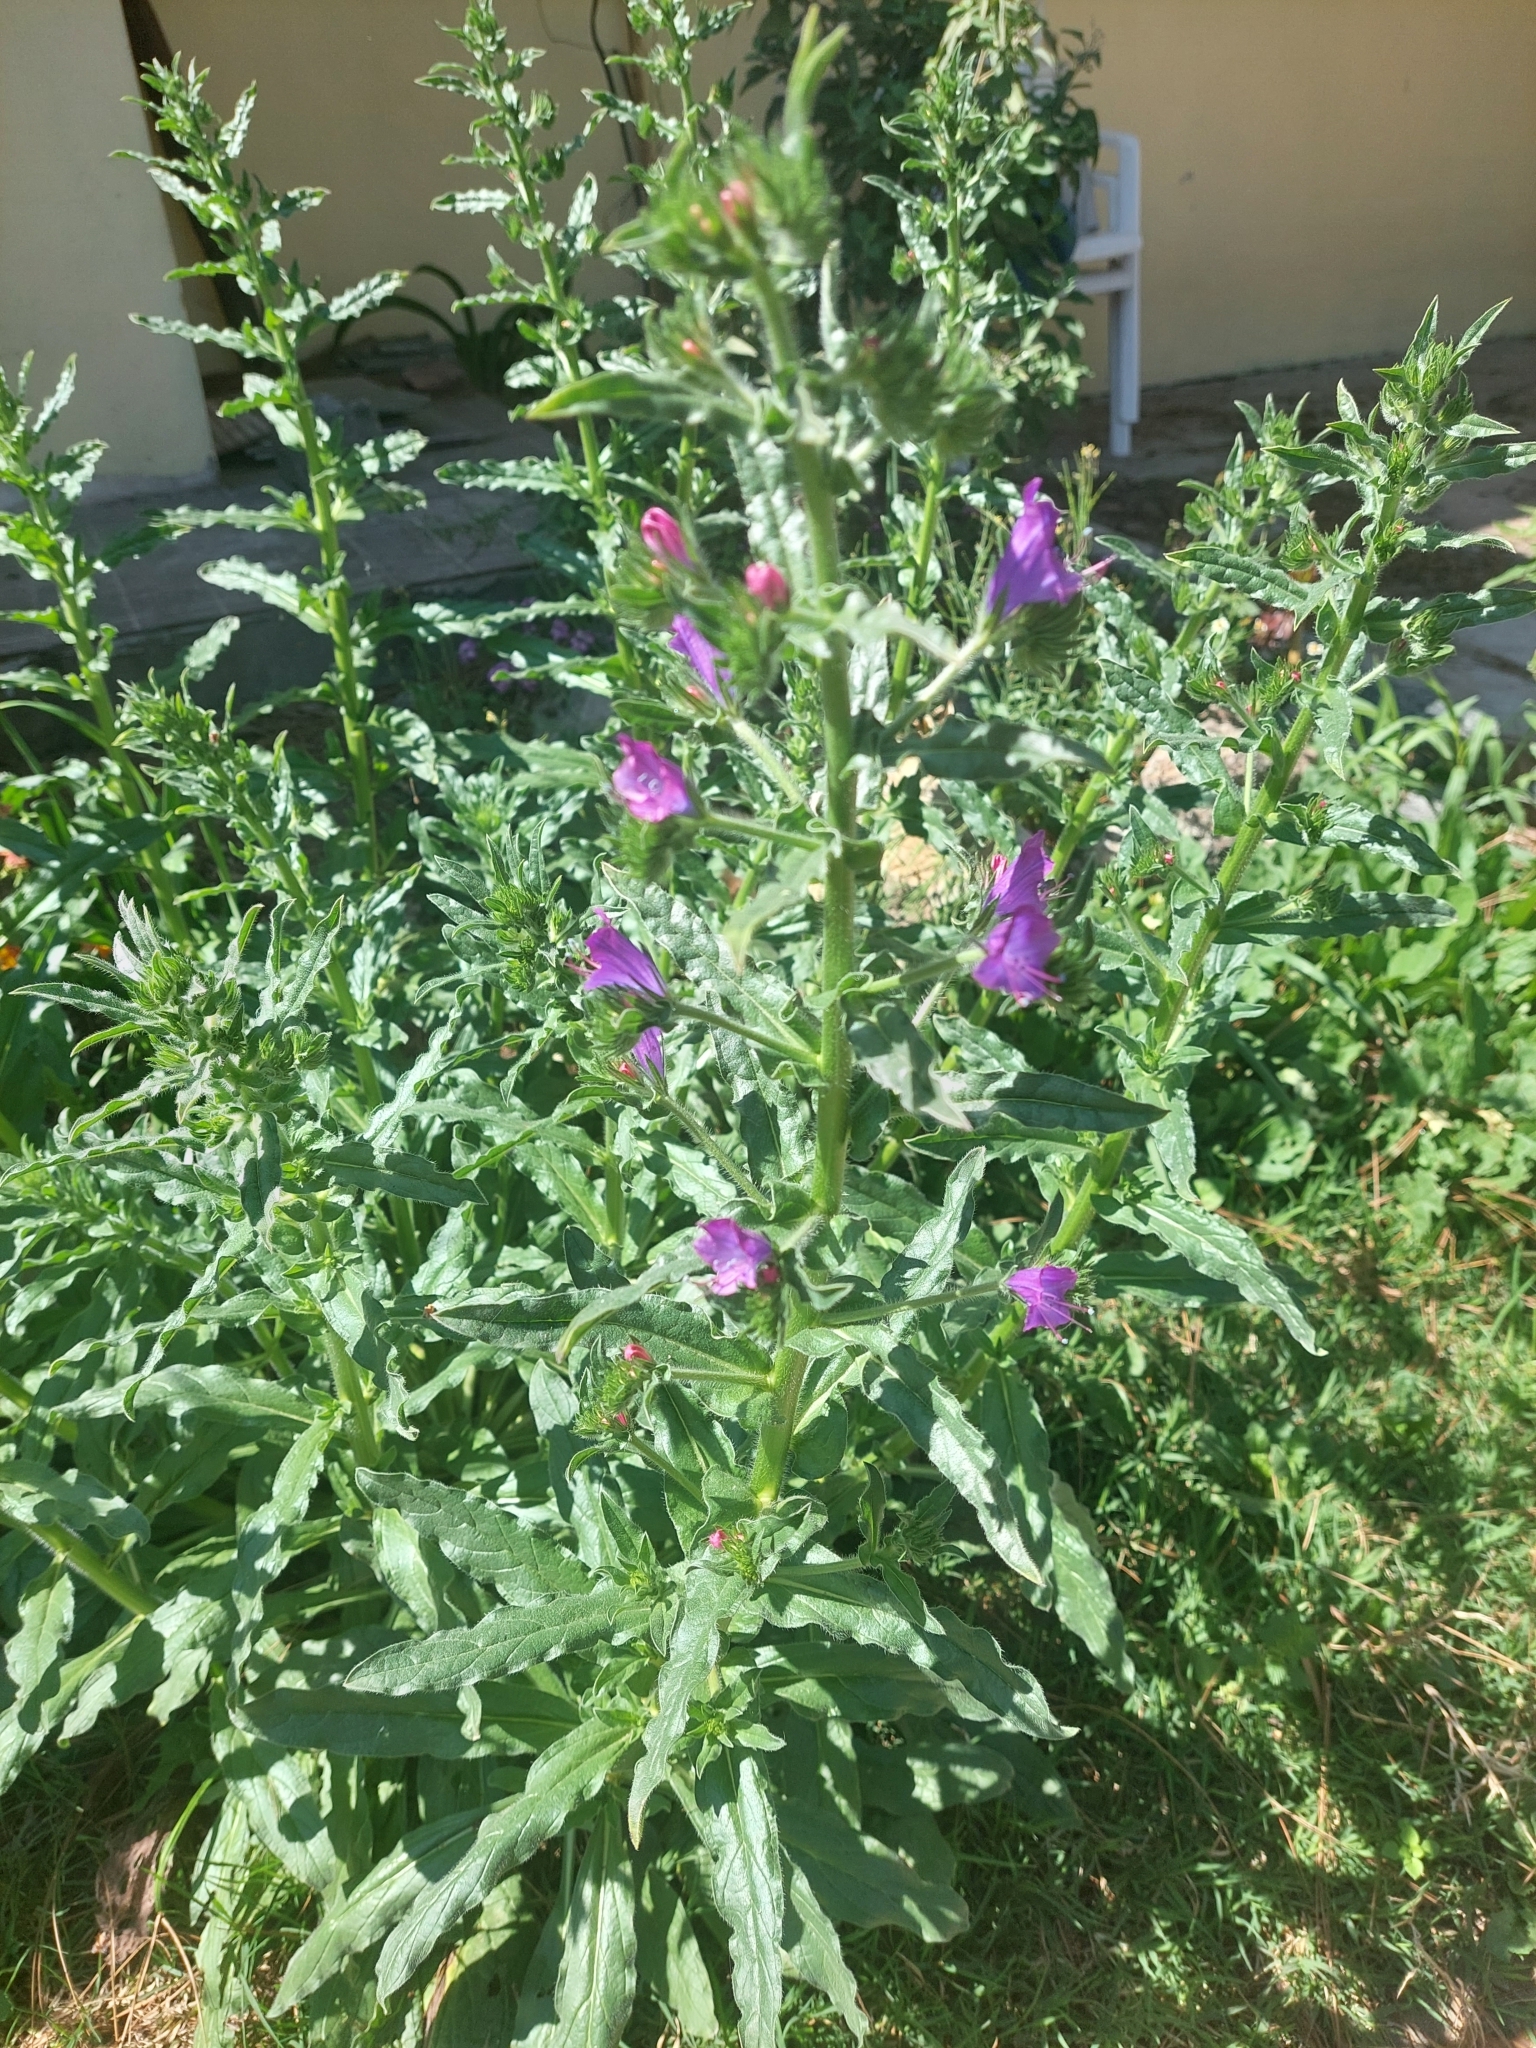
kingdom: Plantae
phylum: Tracheophyta
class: Magnoliopsida
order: Boraginales
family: Boraginaceae
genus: Echium
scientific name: Echium plantagineum
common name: Purple viper's-bugloss
